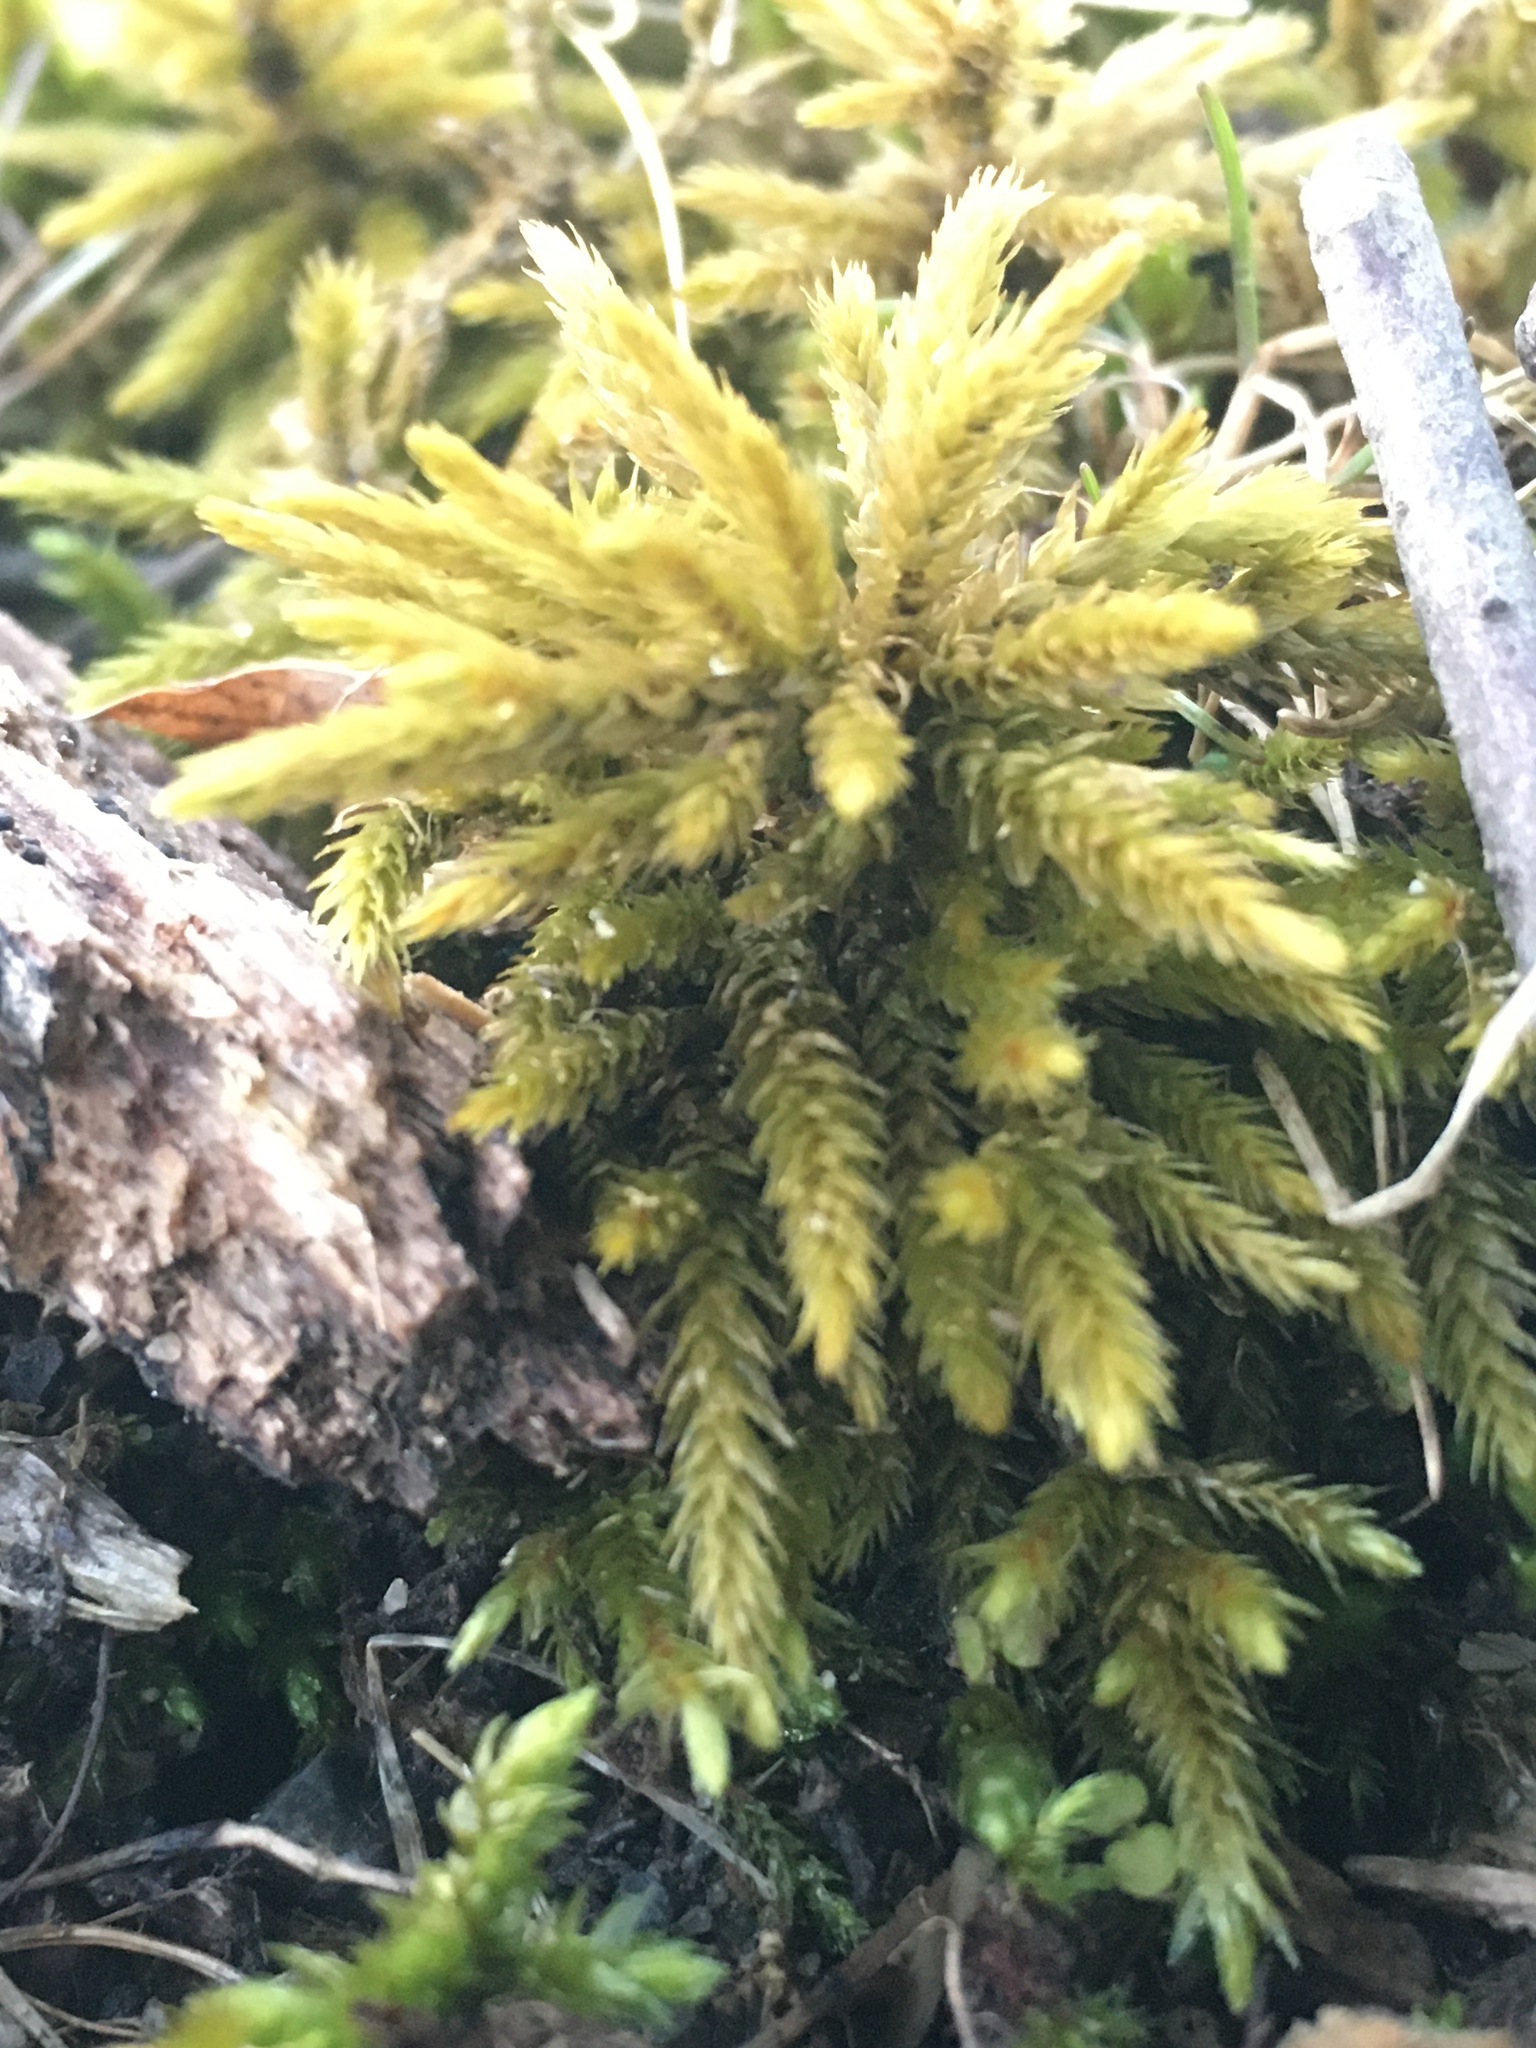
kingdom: Plantae
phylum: Bryophyta
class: Bryopsida
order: Hypnales
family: Climaciaceae
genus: Climacium
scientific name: Climacium americanum
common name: American tree moss
